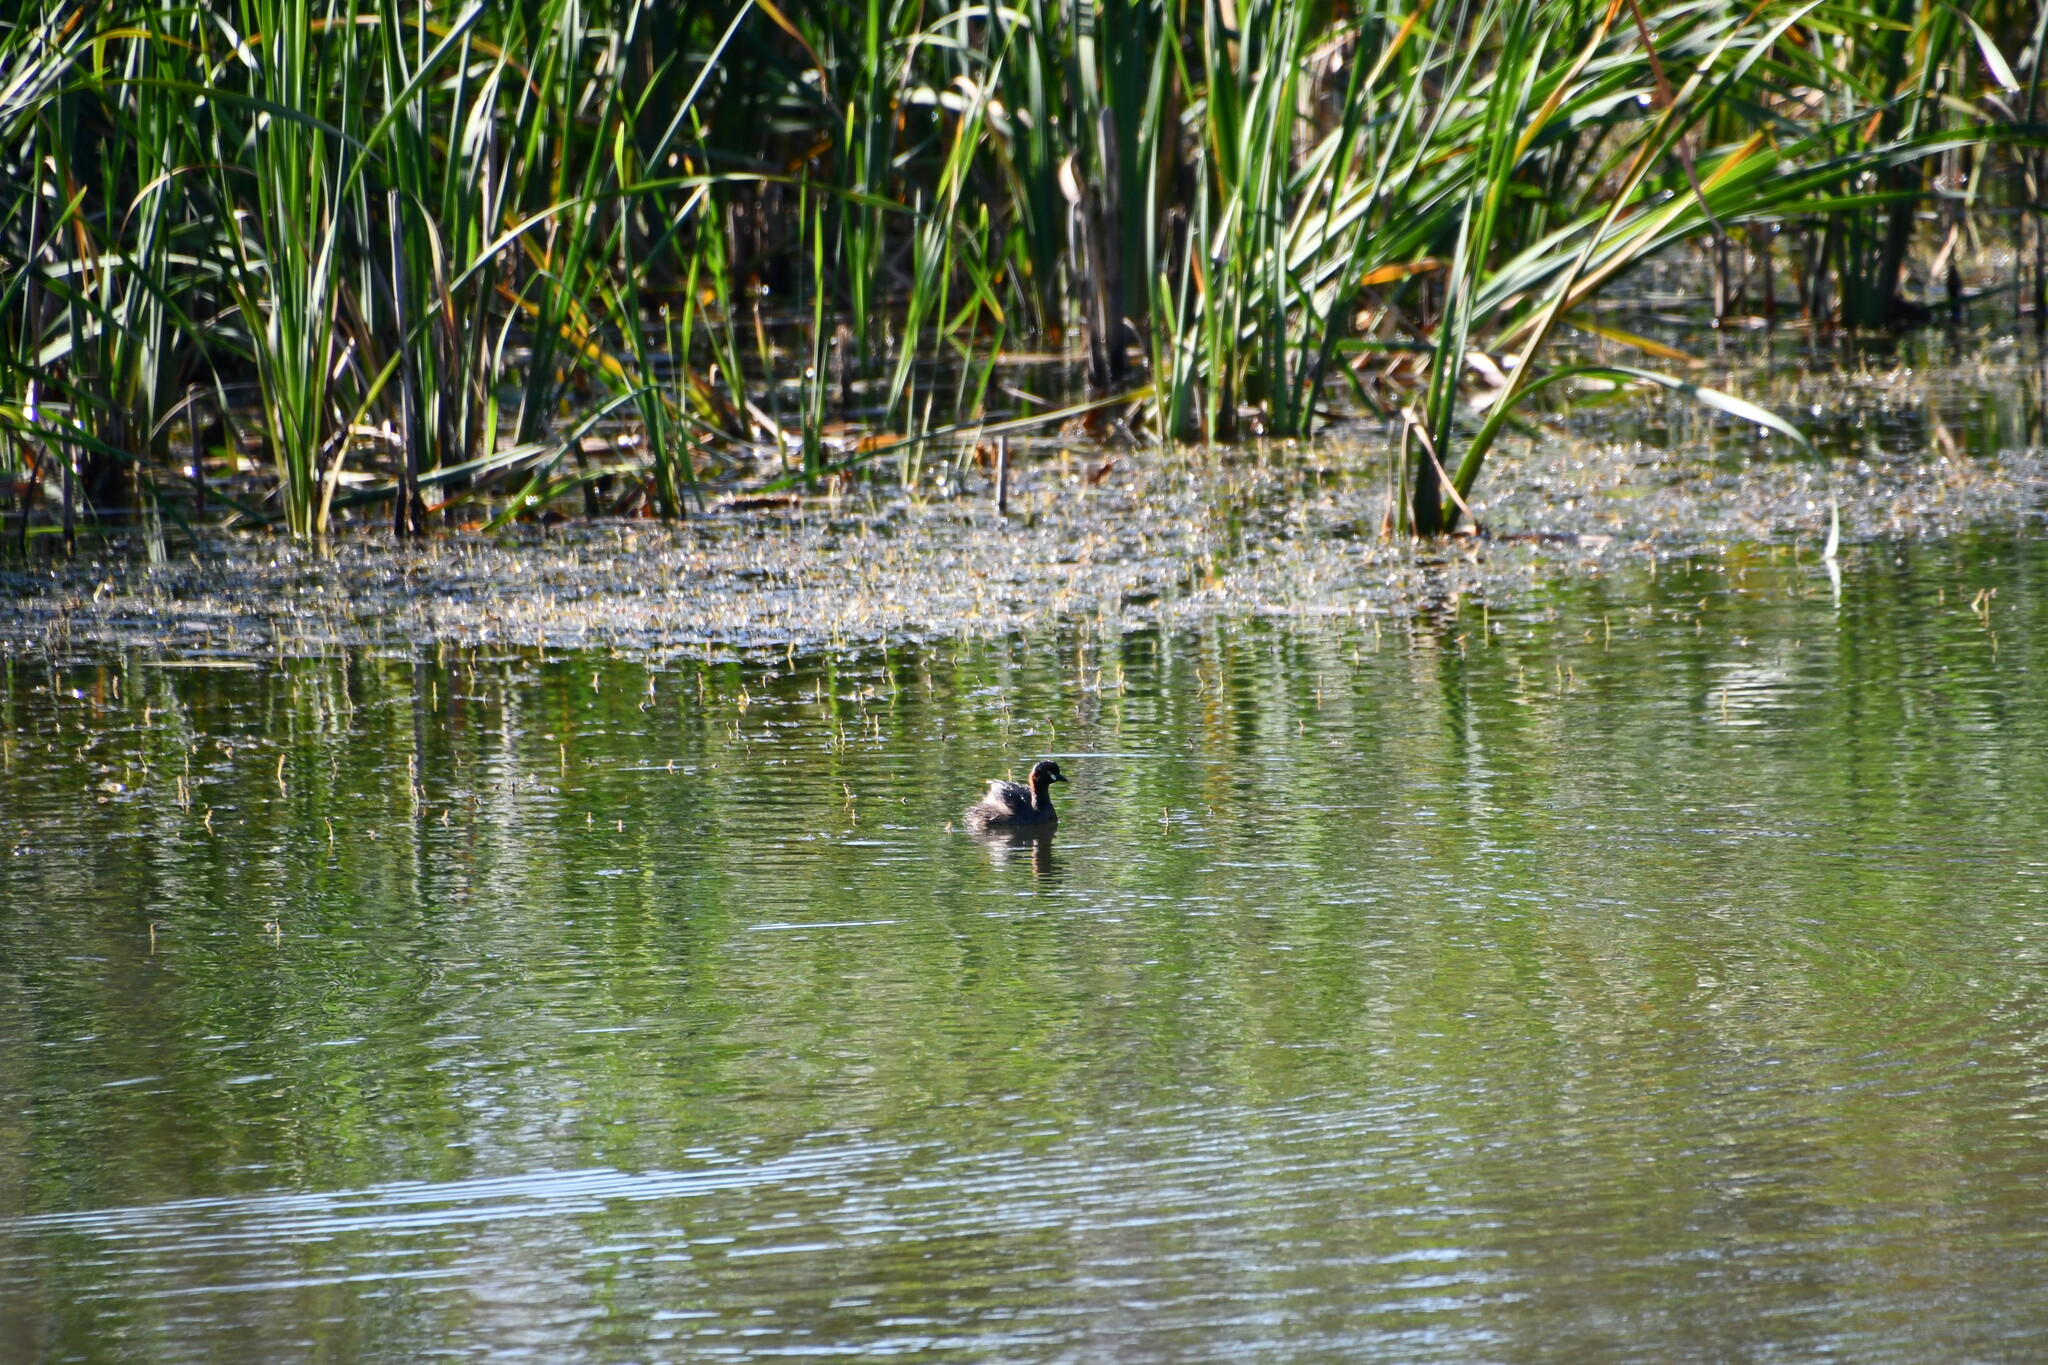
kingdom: Animalia
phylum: Chordata
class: Aves
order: Podicipediformes
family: Podicipedidae
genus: Tachybaptus
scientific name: Tachybaptus novaehollandiae
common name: Australasian grebe
